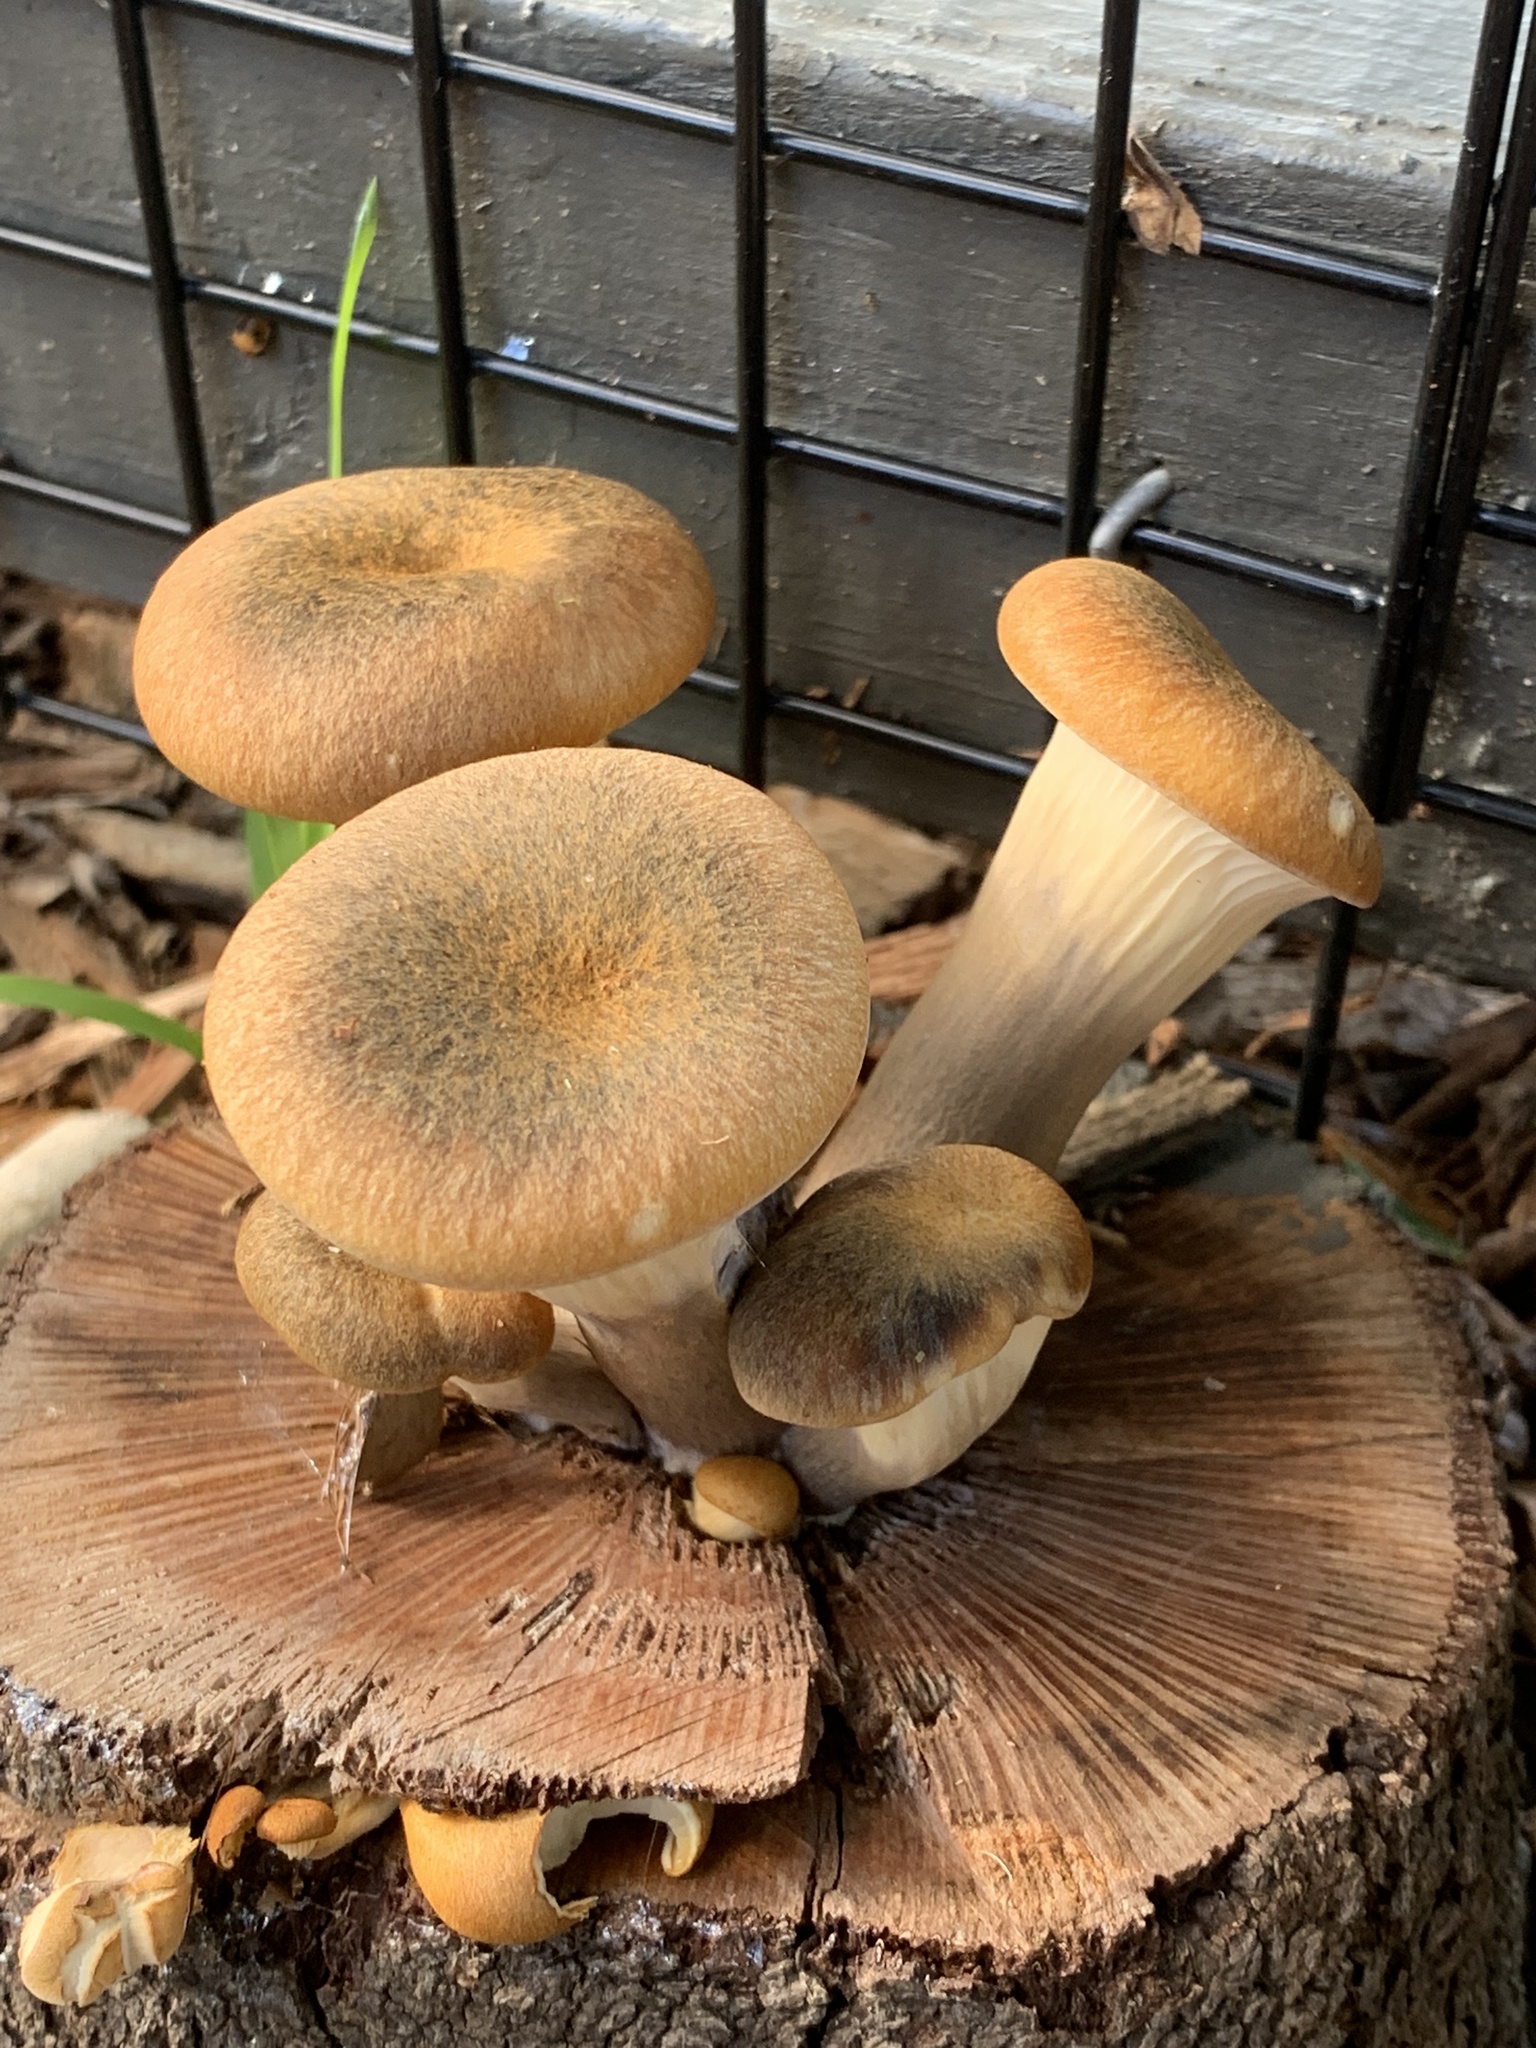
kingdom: Fungi
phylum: Basidiomycota
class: Agaricomycetes
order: Agaricales
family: Omphalotaceae
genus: Omphalotus
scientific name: Omphalotus nidiformis
